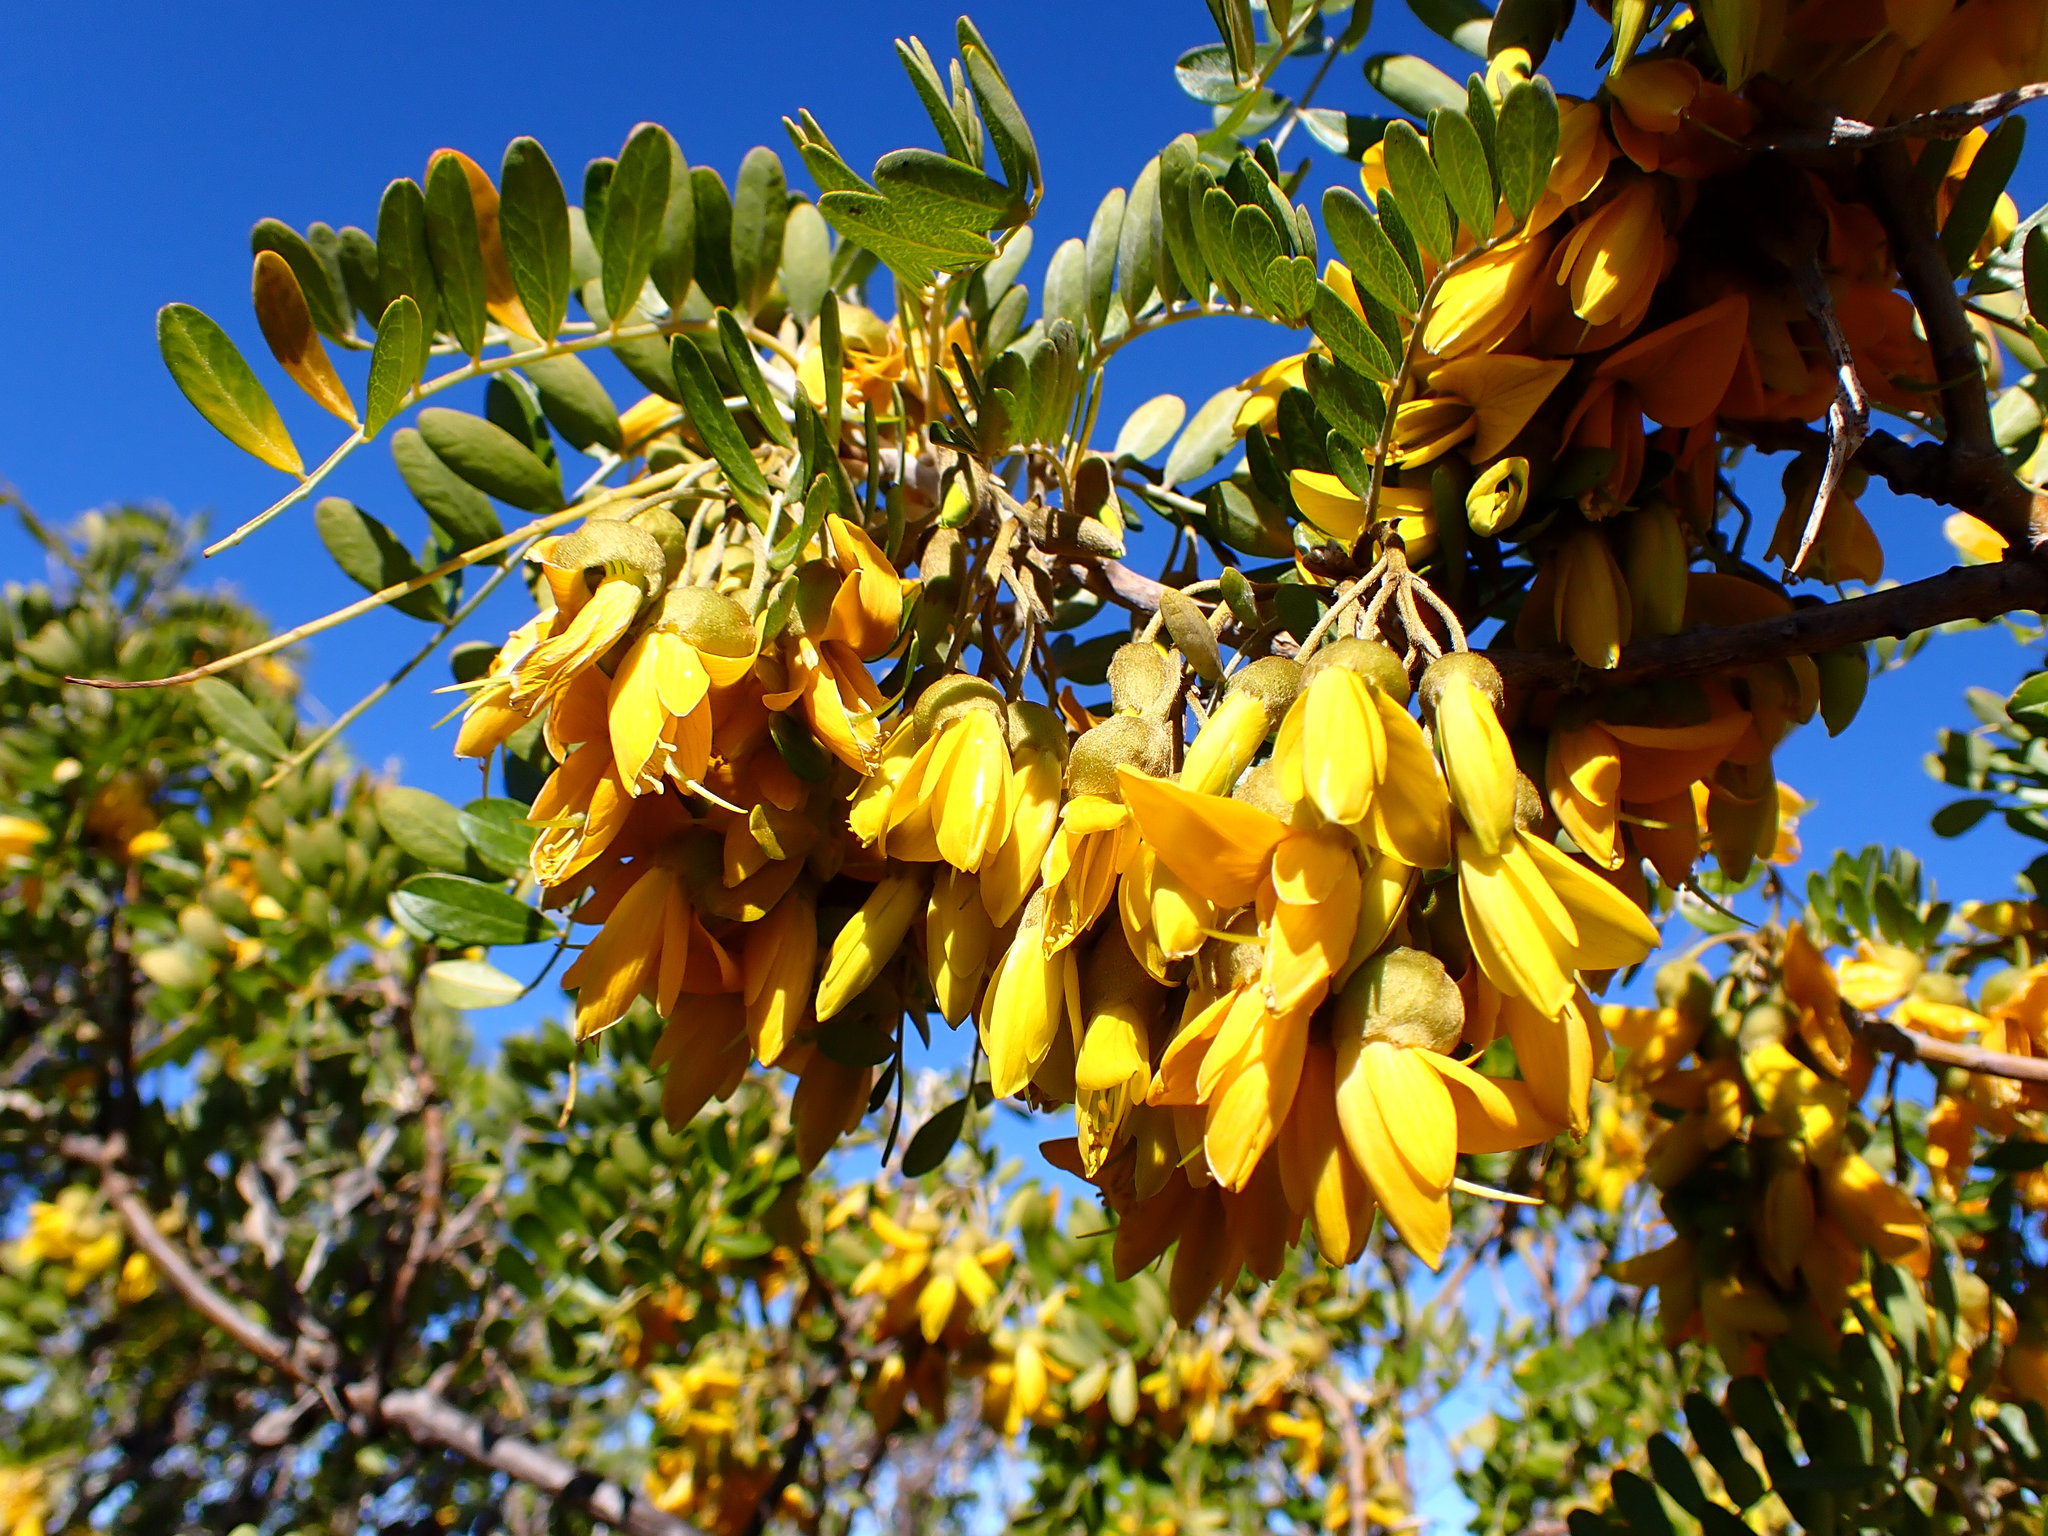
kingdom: Plantae
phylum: Tracheophyta
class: Magnoliopsida
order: Fabales
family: Fabaceae
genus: Sophora
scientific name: Sophora chrysophylla
